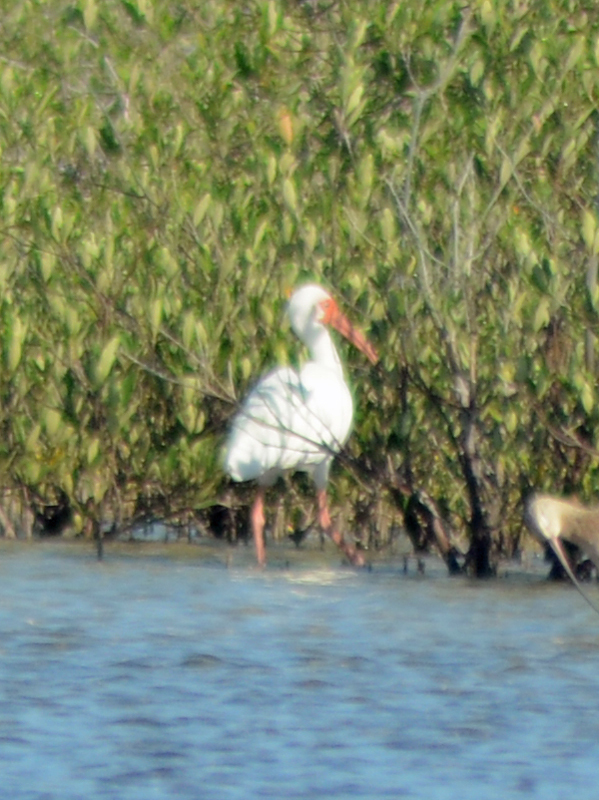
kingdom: Animalia
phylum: Chordata
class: Aves
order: Pelecaniformes
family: Threskiornithidae
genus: Eudocimus
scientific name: Eudocimus albus
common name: White ibis
